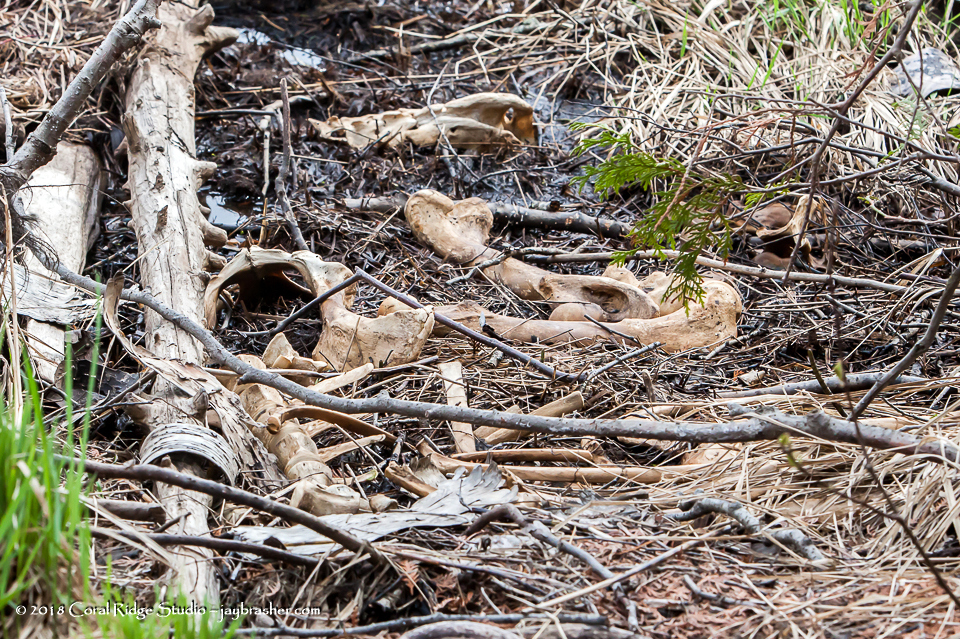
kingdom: Animalia
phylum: Chordata
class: Mammalia
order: Artiodactyla
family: Cervidae
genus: Alces
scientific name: Alces alces
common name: Moose
